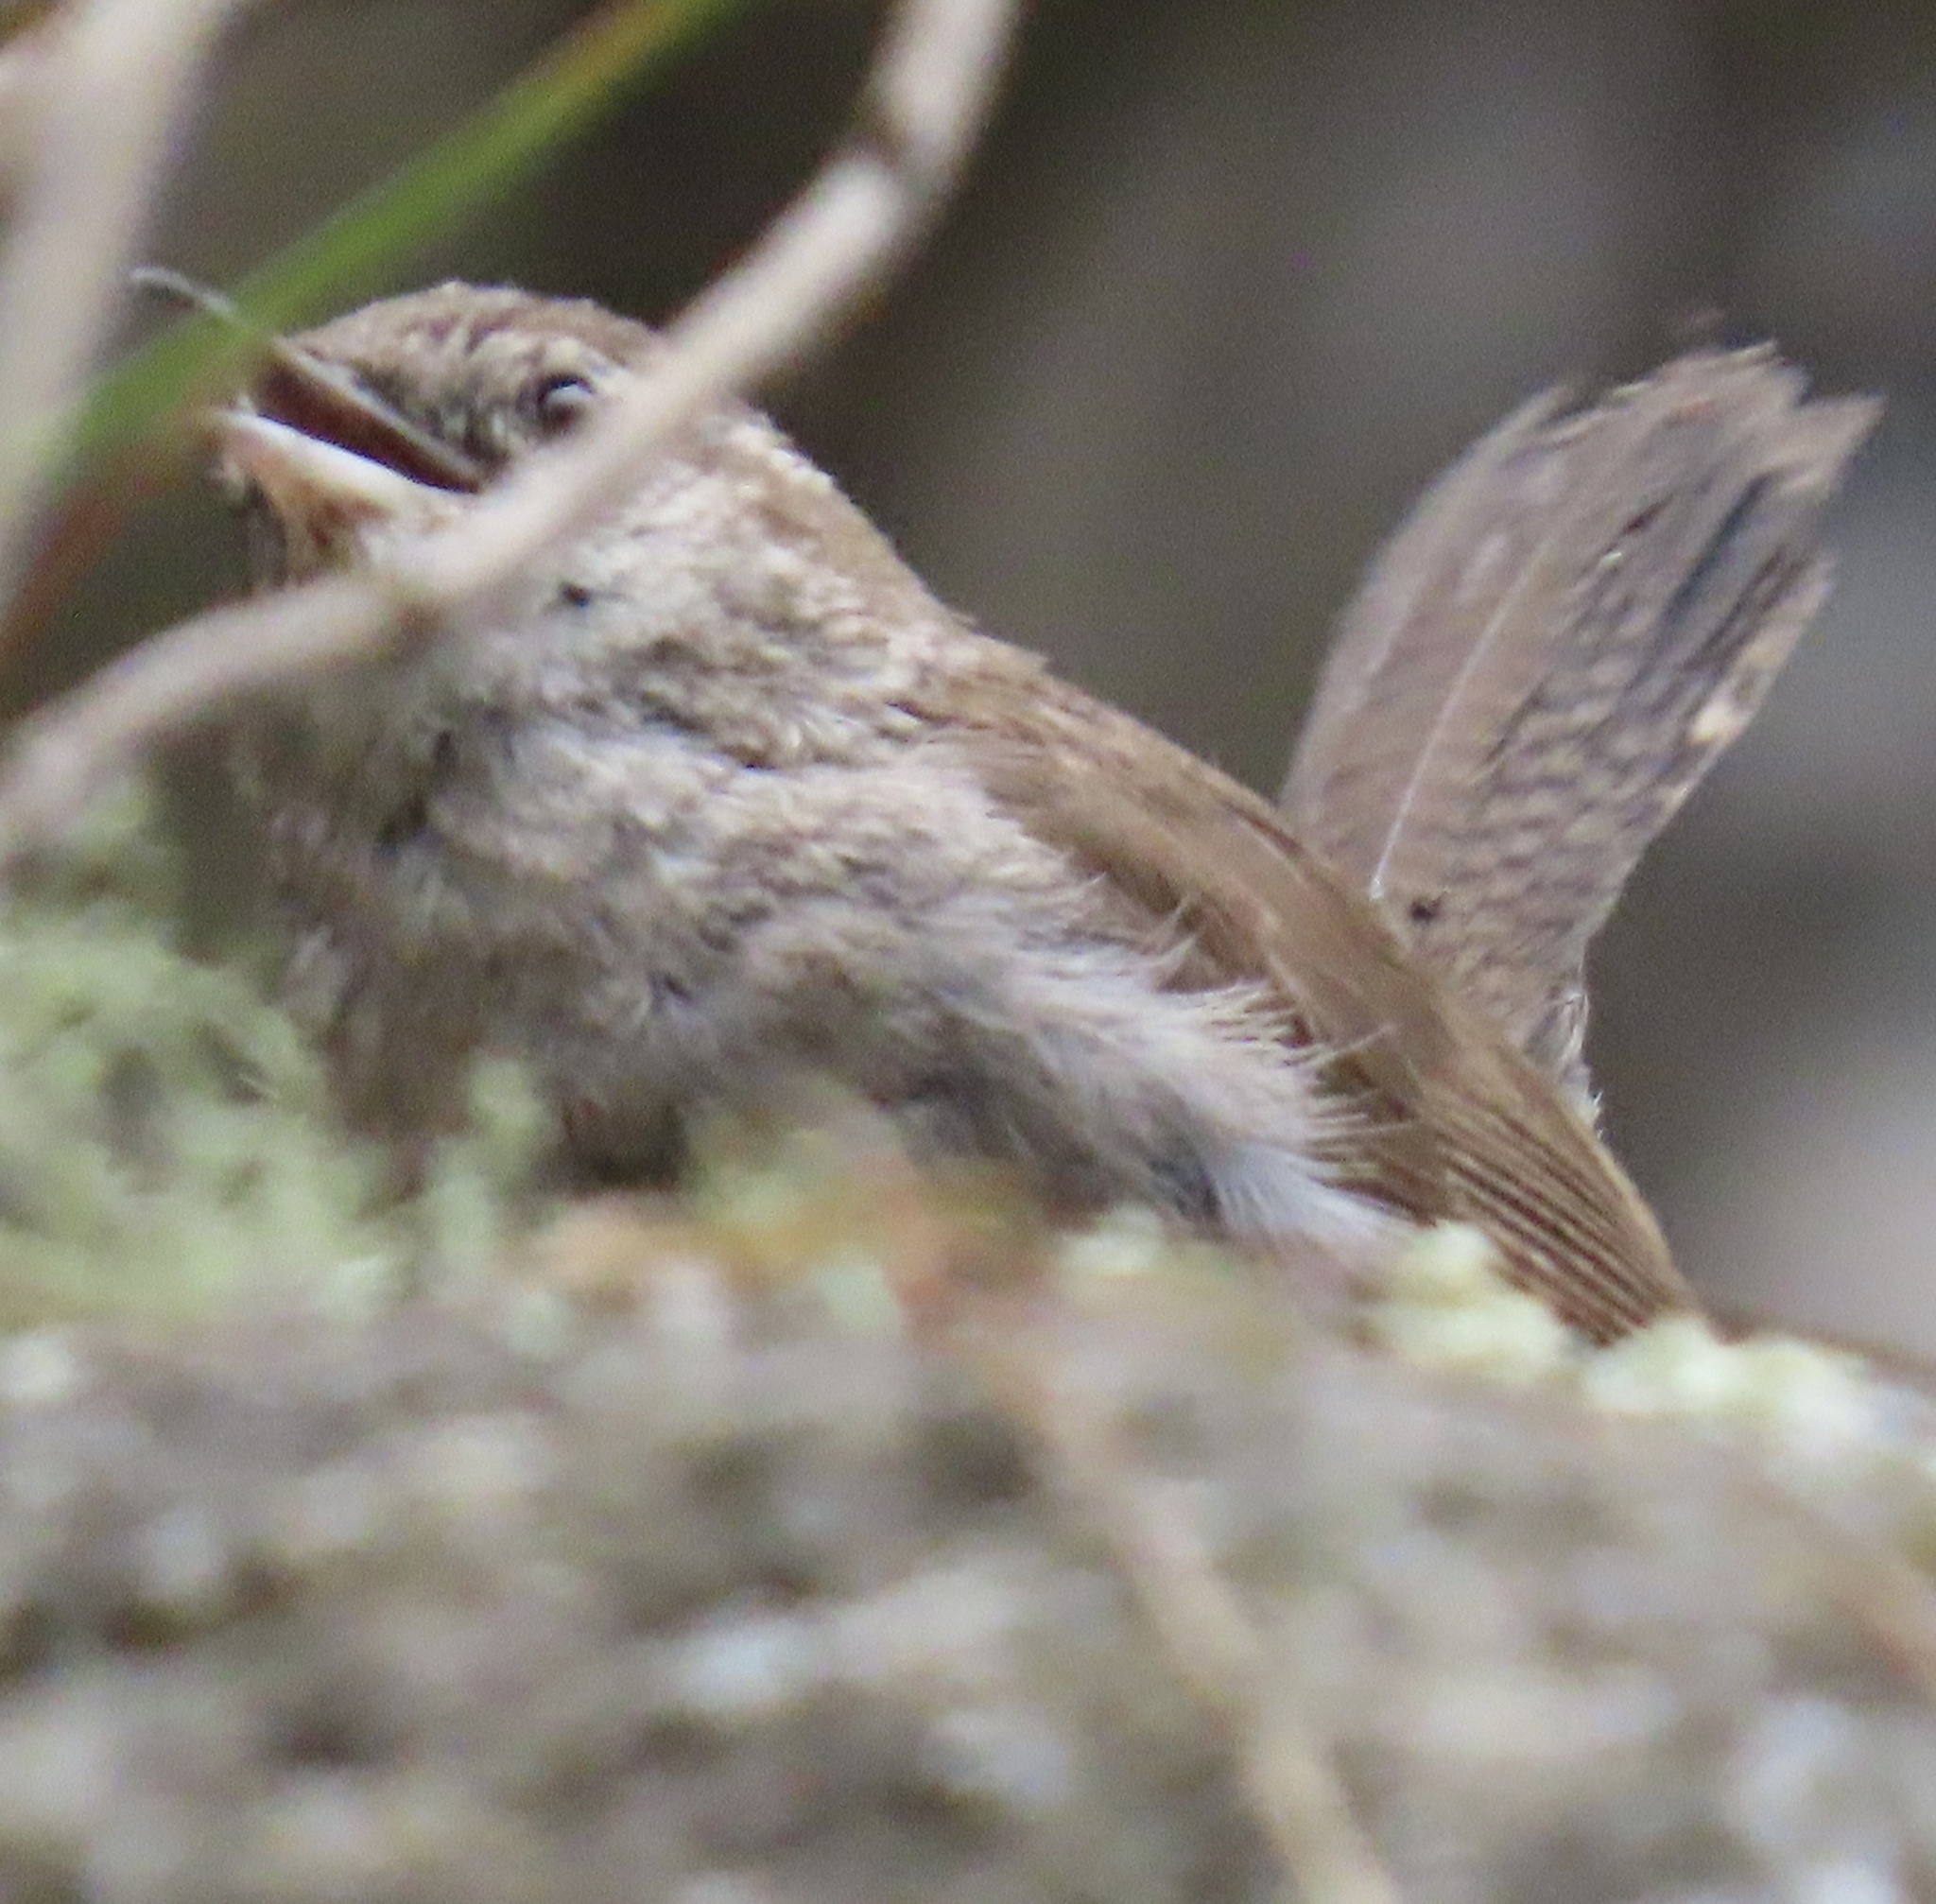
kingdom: Animalia
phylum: Chordata
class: Aves
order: Passeriformes
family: Troglodytidae
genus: Thryomanes
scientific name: Thryomanes bewickii
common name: Bewick's wren
